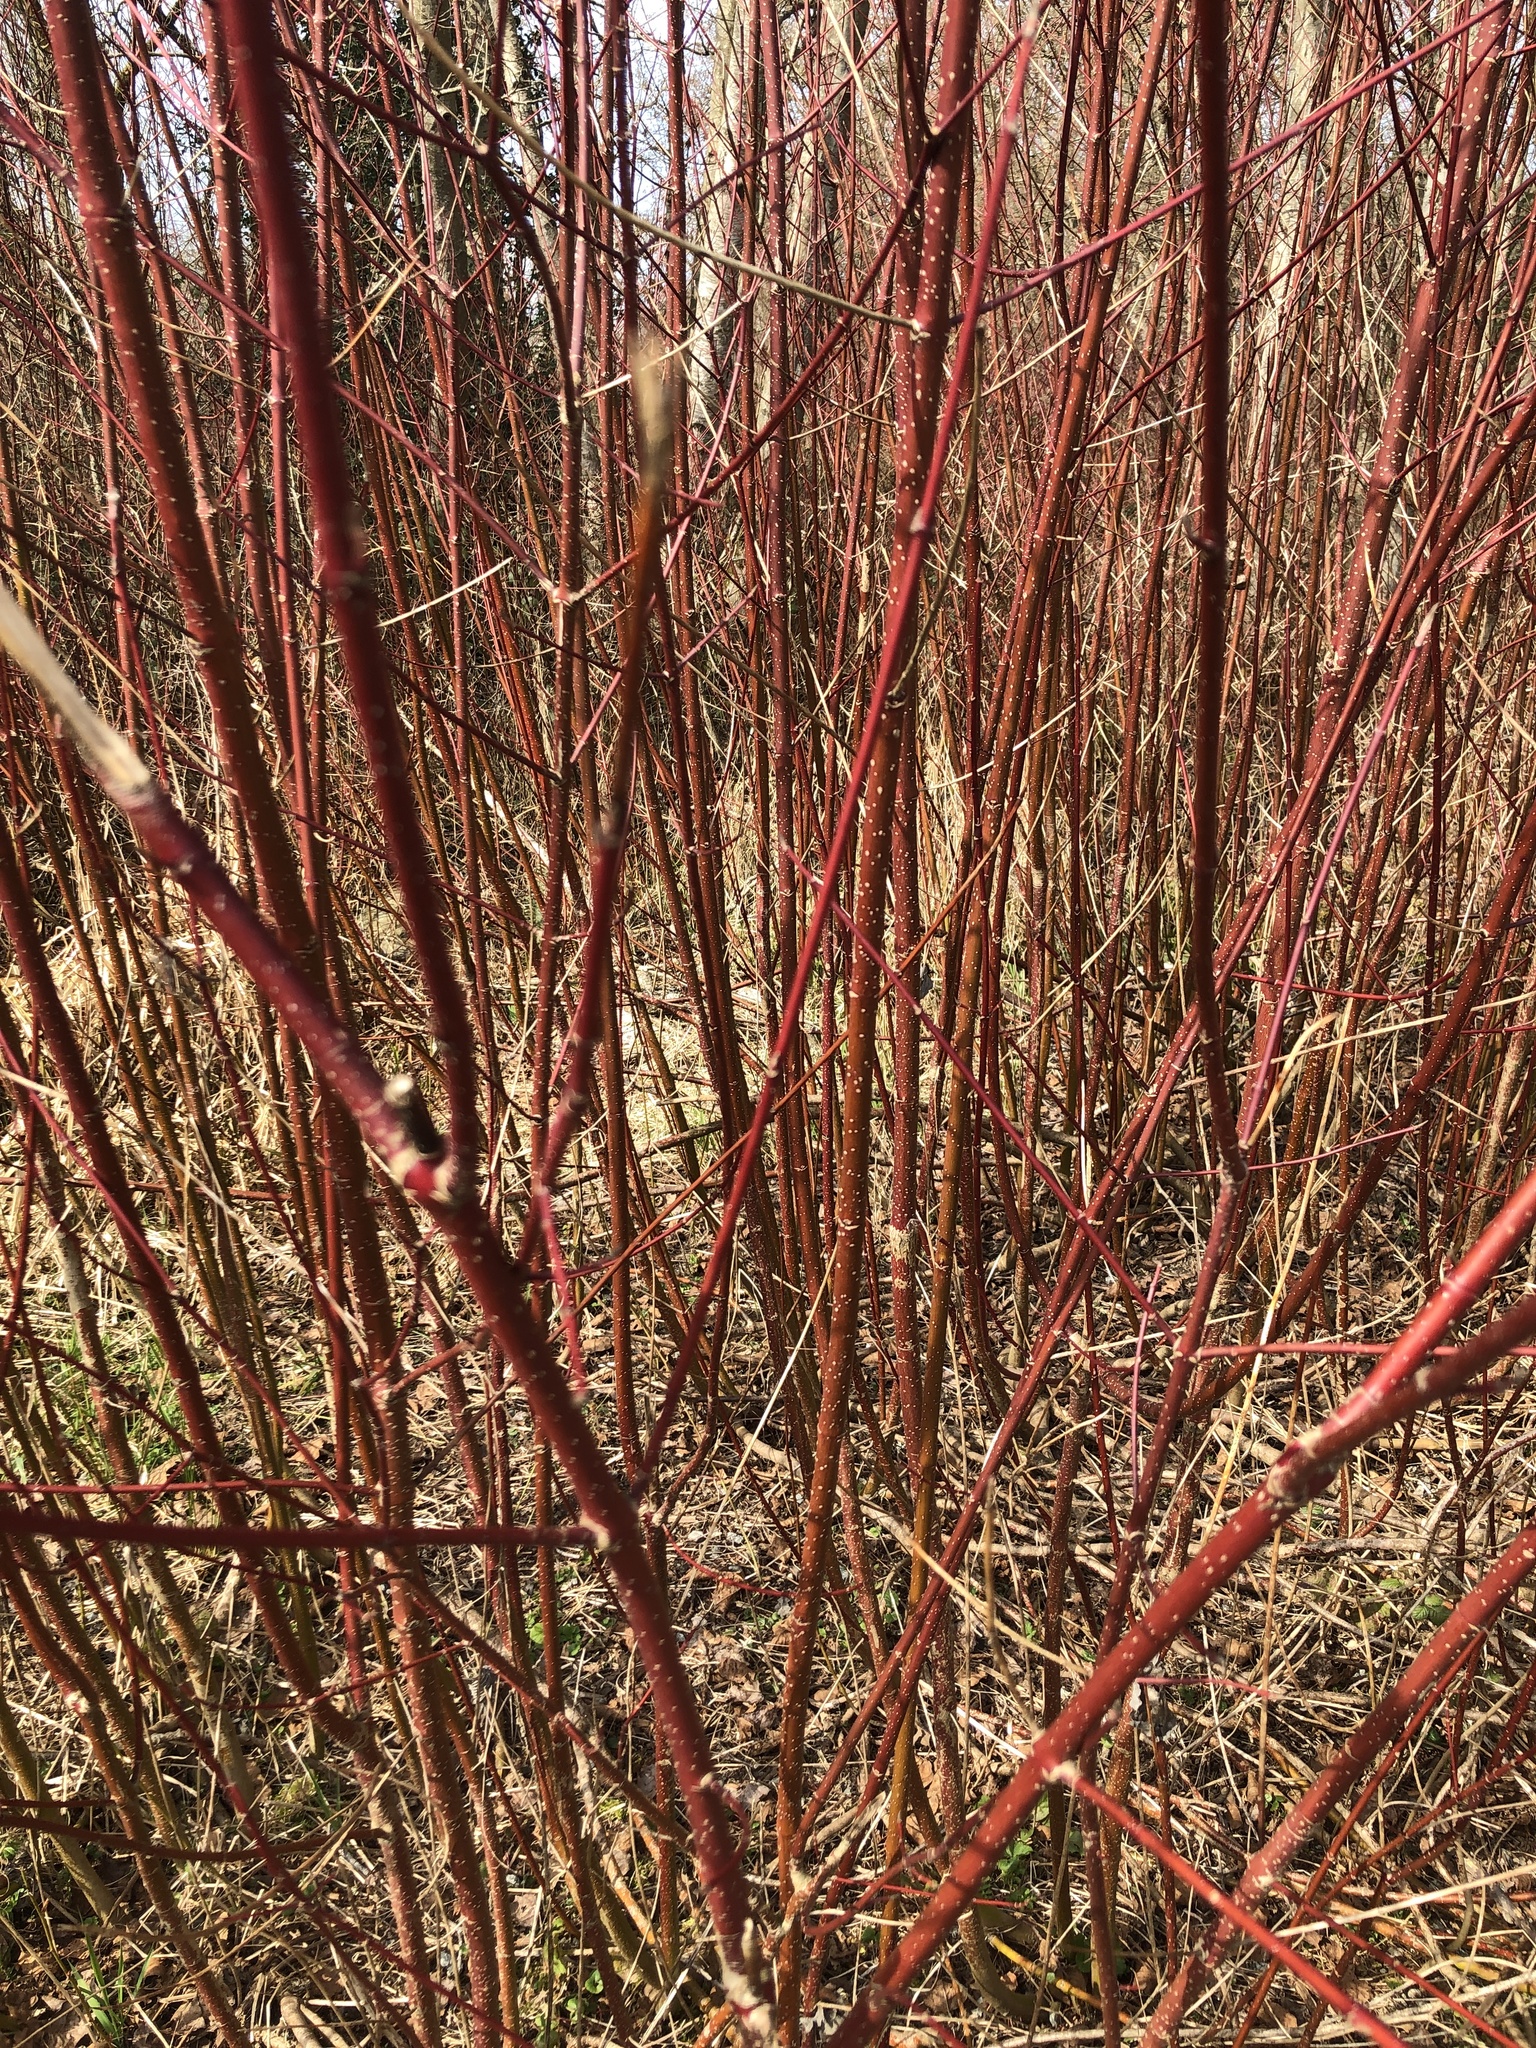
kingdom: Plantae
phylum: Tracheophyta
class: Magnoliopsida
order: Cornales
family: Cornaceae
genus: Cornus
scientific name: Cornus sericea
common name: Red-osier dogwood
